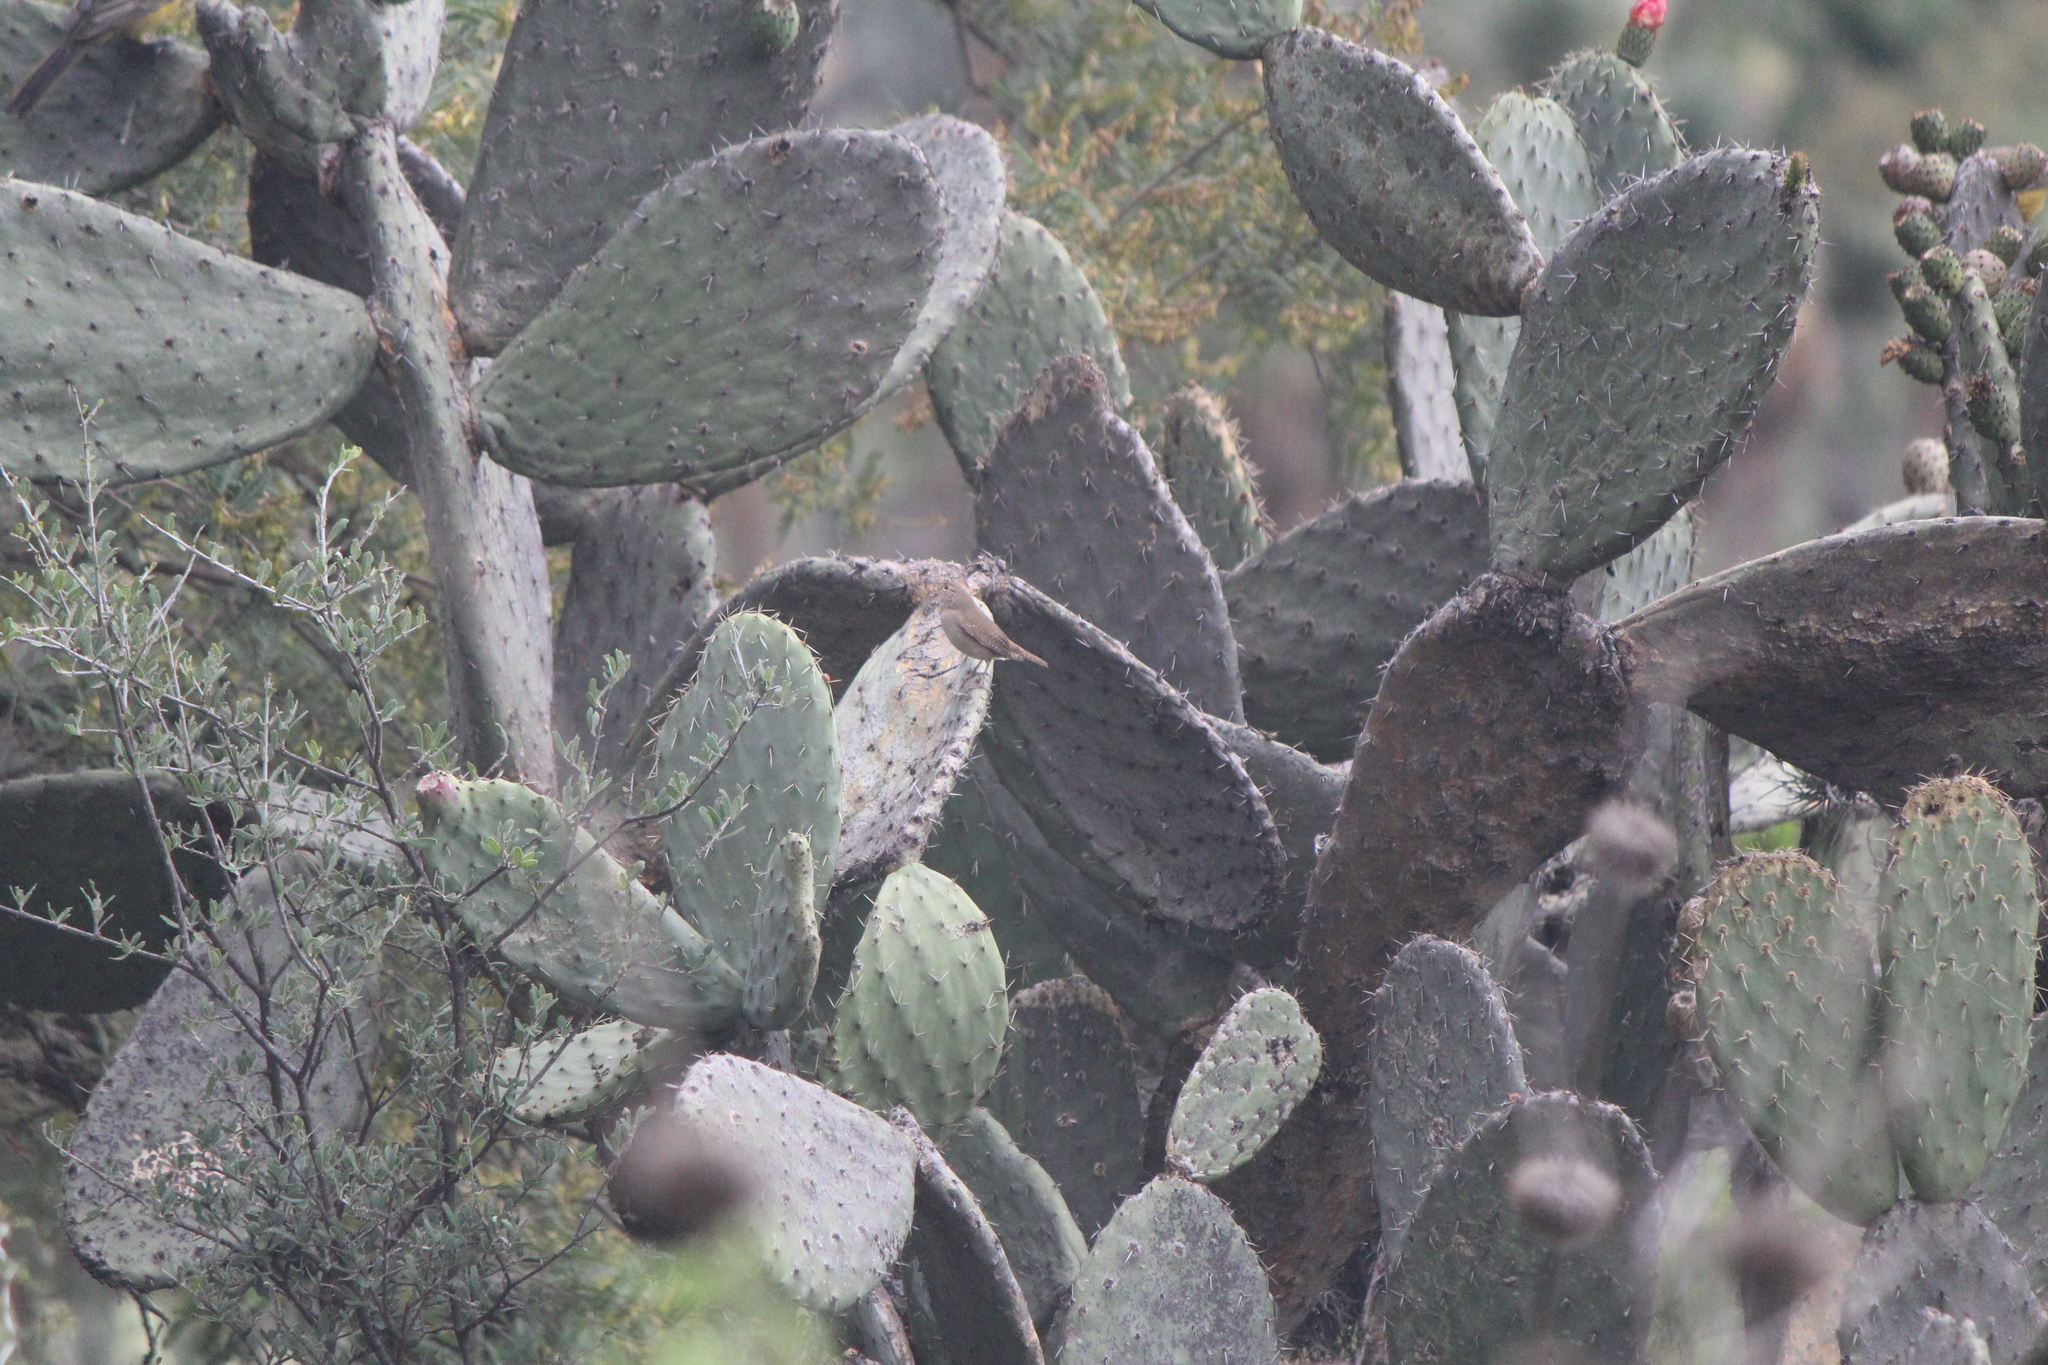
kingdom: Animalia
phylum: Chordata
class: Aves
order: Passeriformes
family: Troglodytidae
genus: Troglodytes
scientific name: Troglodytes aedon
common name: House wren
